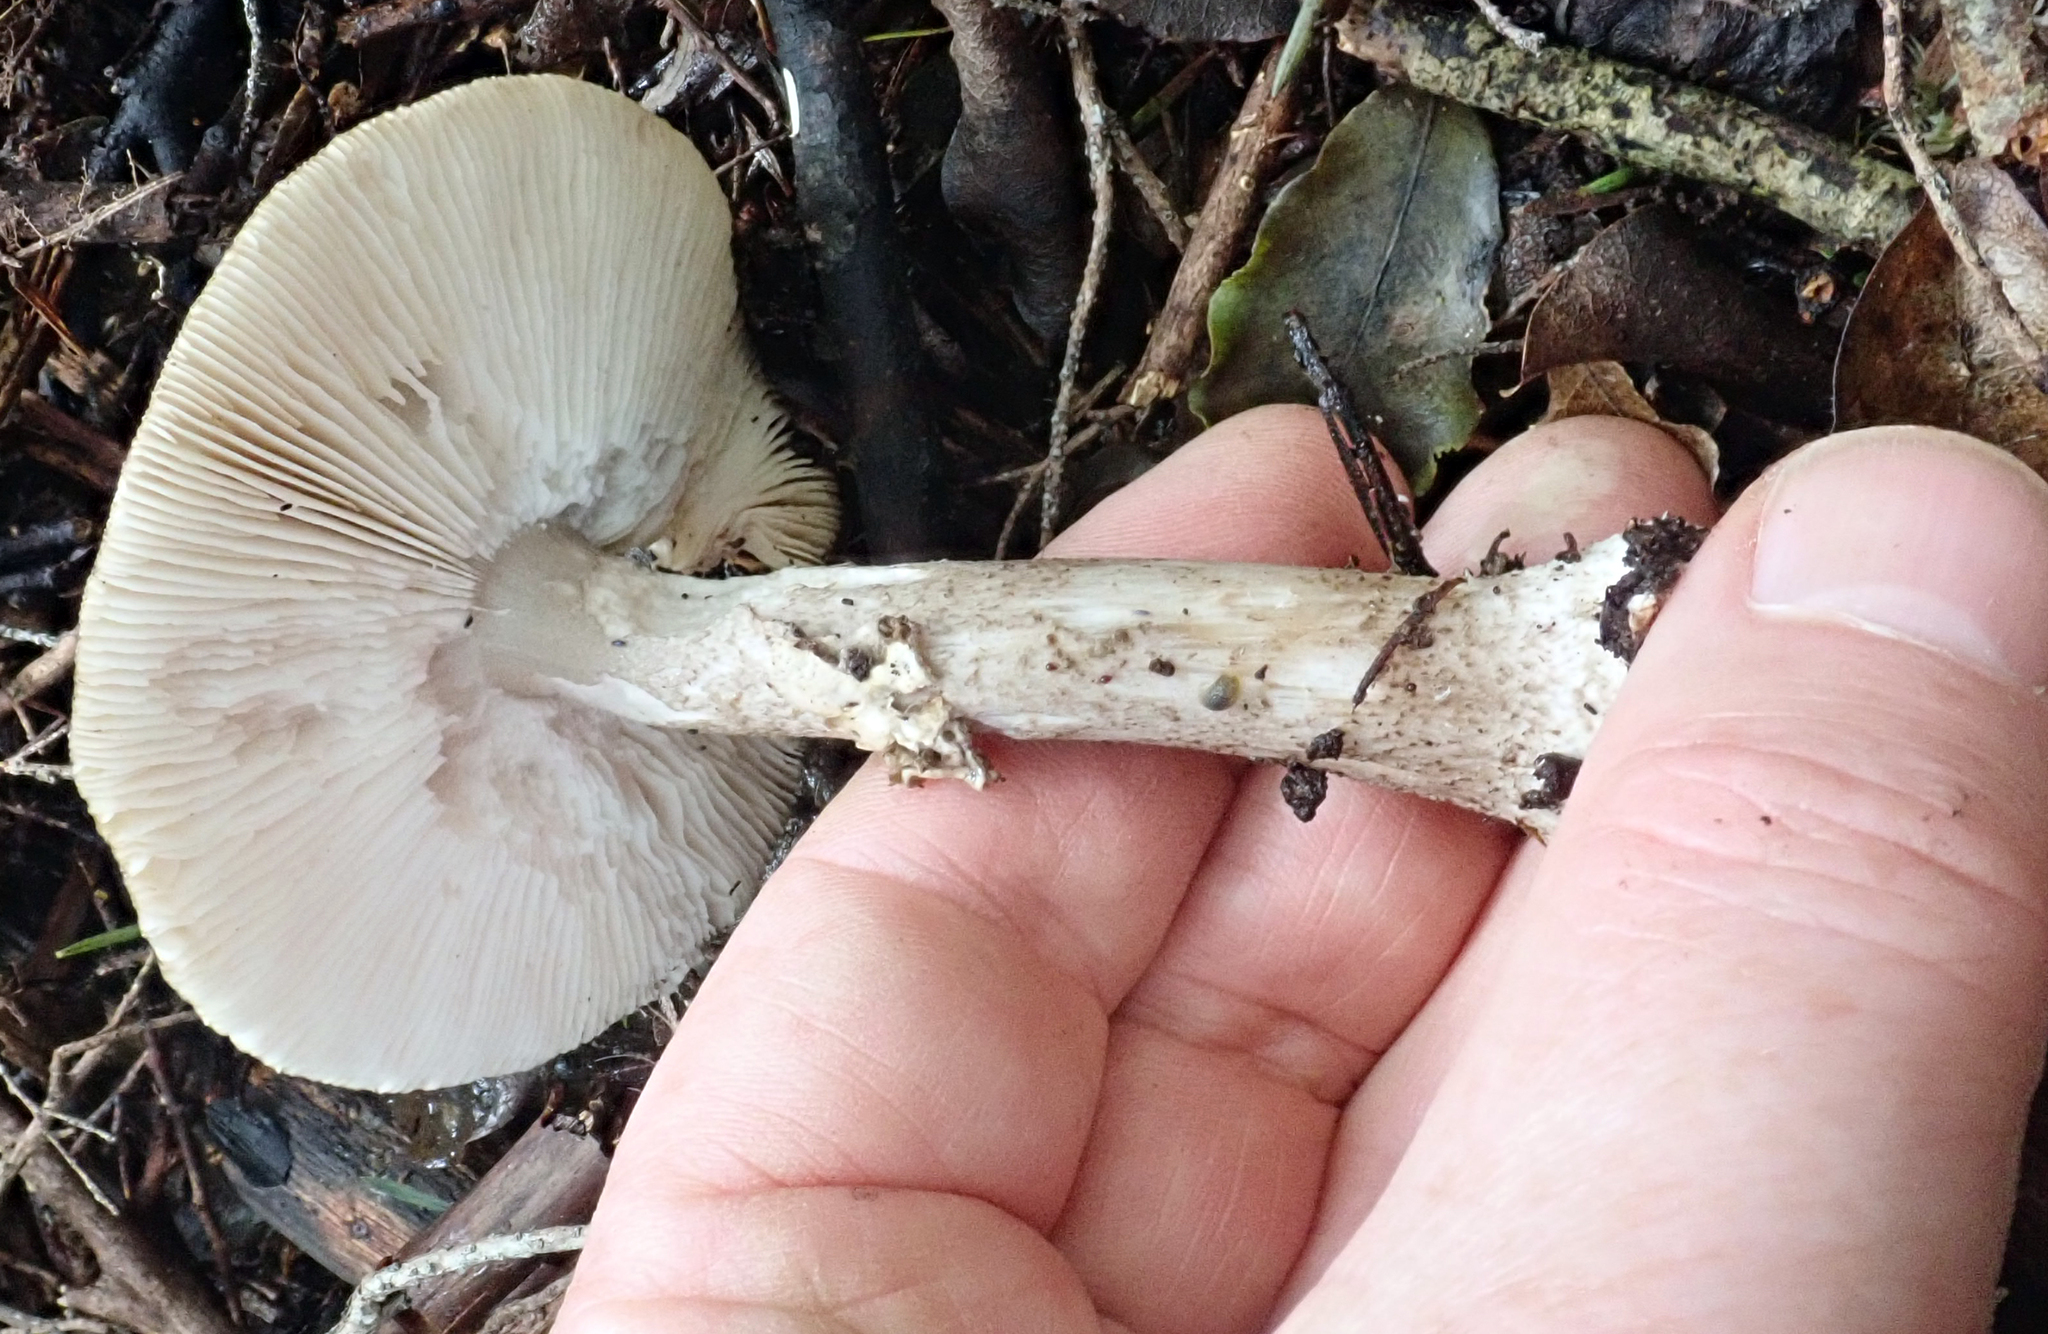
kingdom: Fungi
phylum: Basidiomycota
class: Agaricomycetes
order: Agaricales
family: Amanitaceae
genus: Amanita
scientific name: Amanita nothofagi
